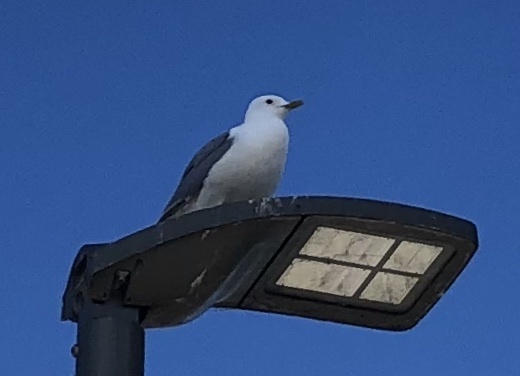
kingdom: Animalia
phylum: Chordata
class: Aves
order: Charadriiformes
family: Laridae
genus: Larus
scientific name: Larus canus
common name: Mew gull
